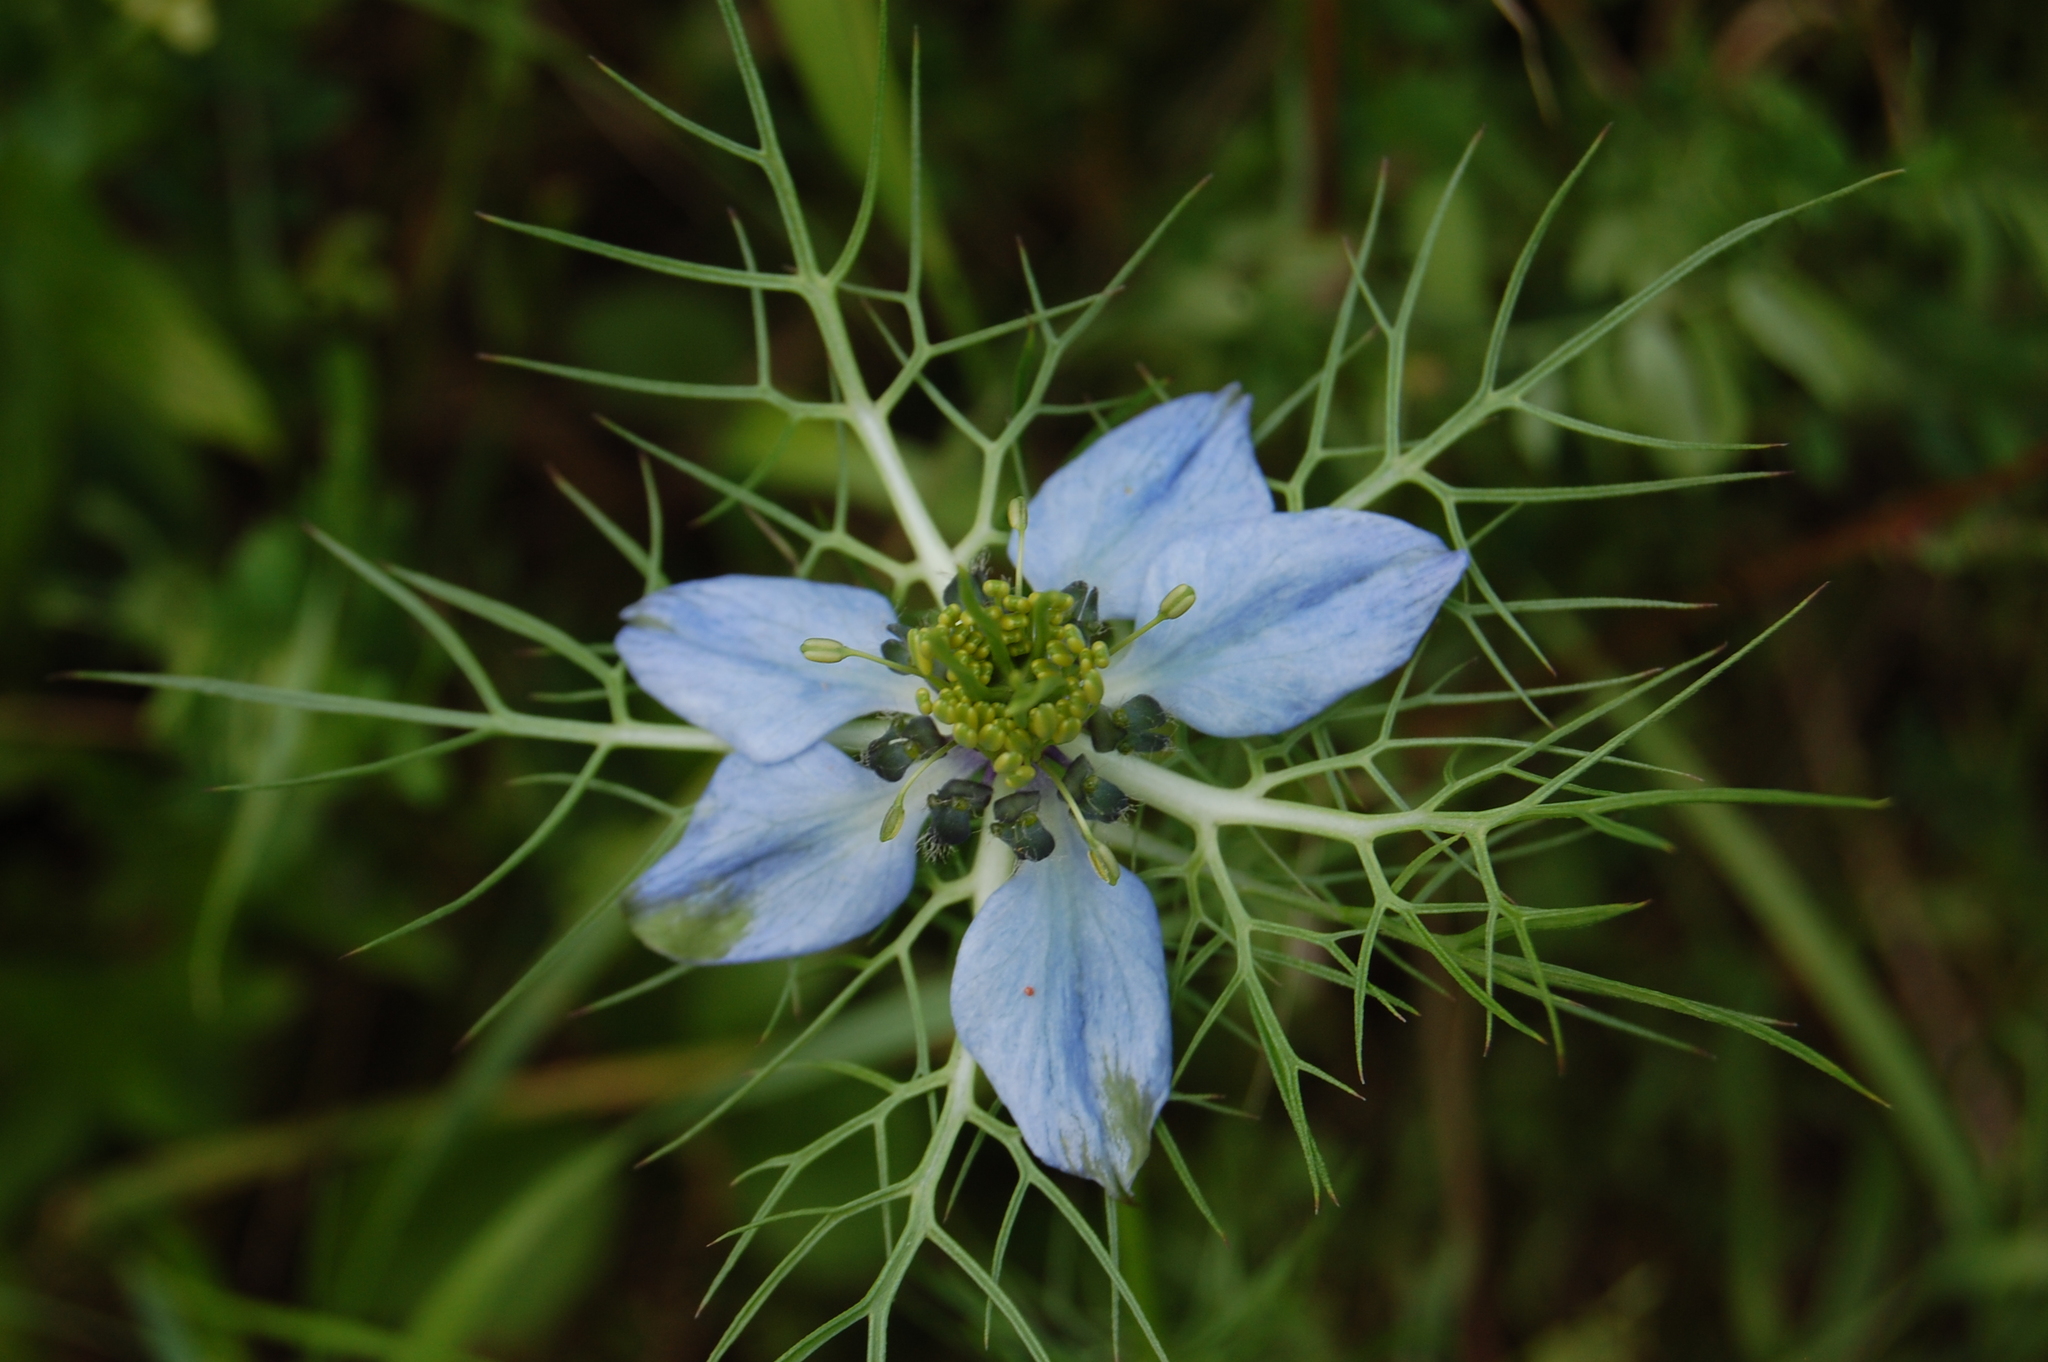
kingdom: Plantae
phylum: Tracheophyta
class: Magnoliopsida
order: Ranunculales
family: Ranunculaceae
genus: Nigella
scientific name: Nigella damascena
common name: Love-in-a-mist
